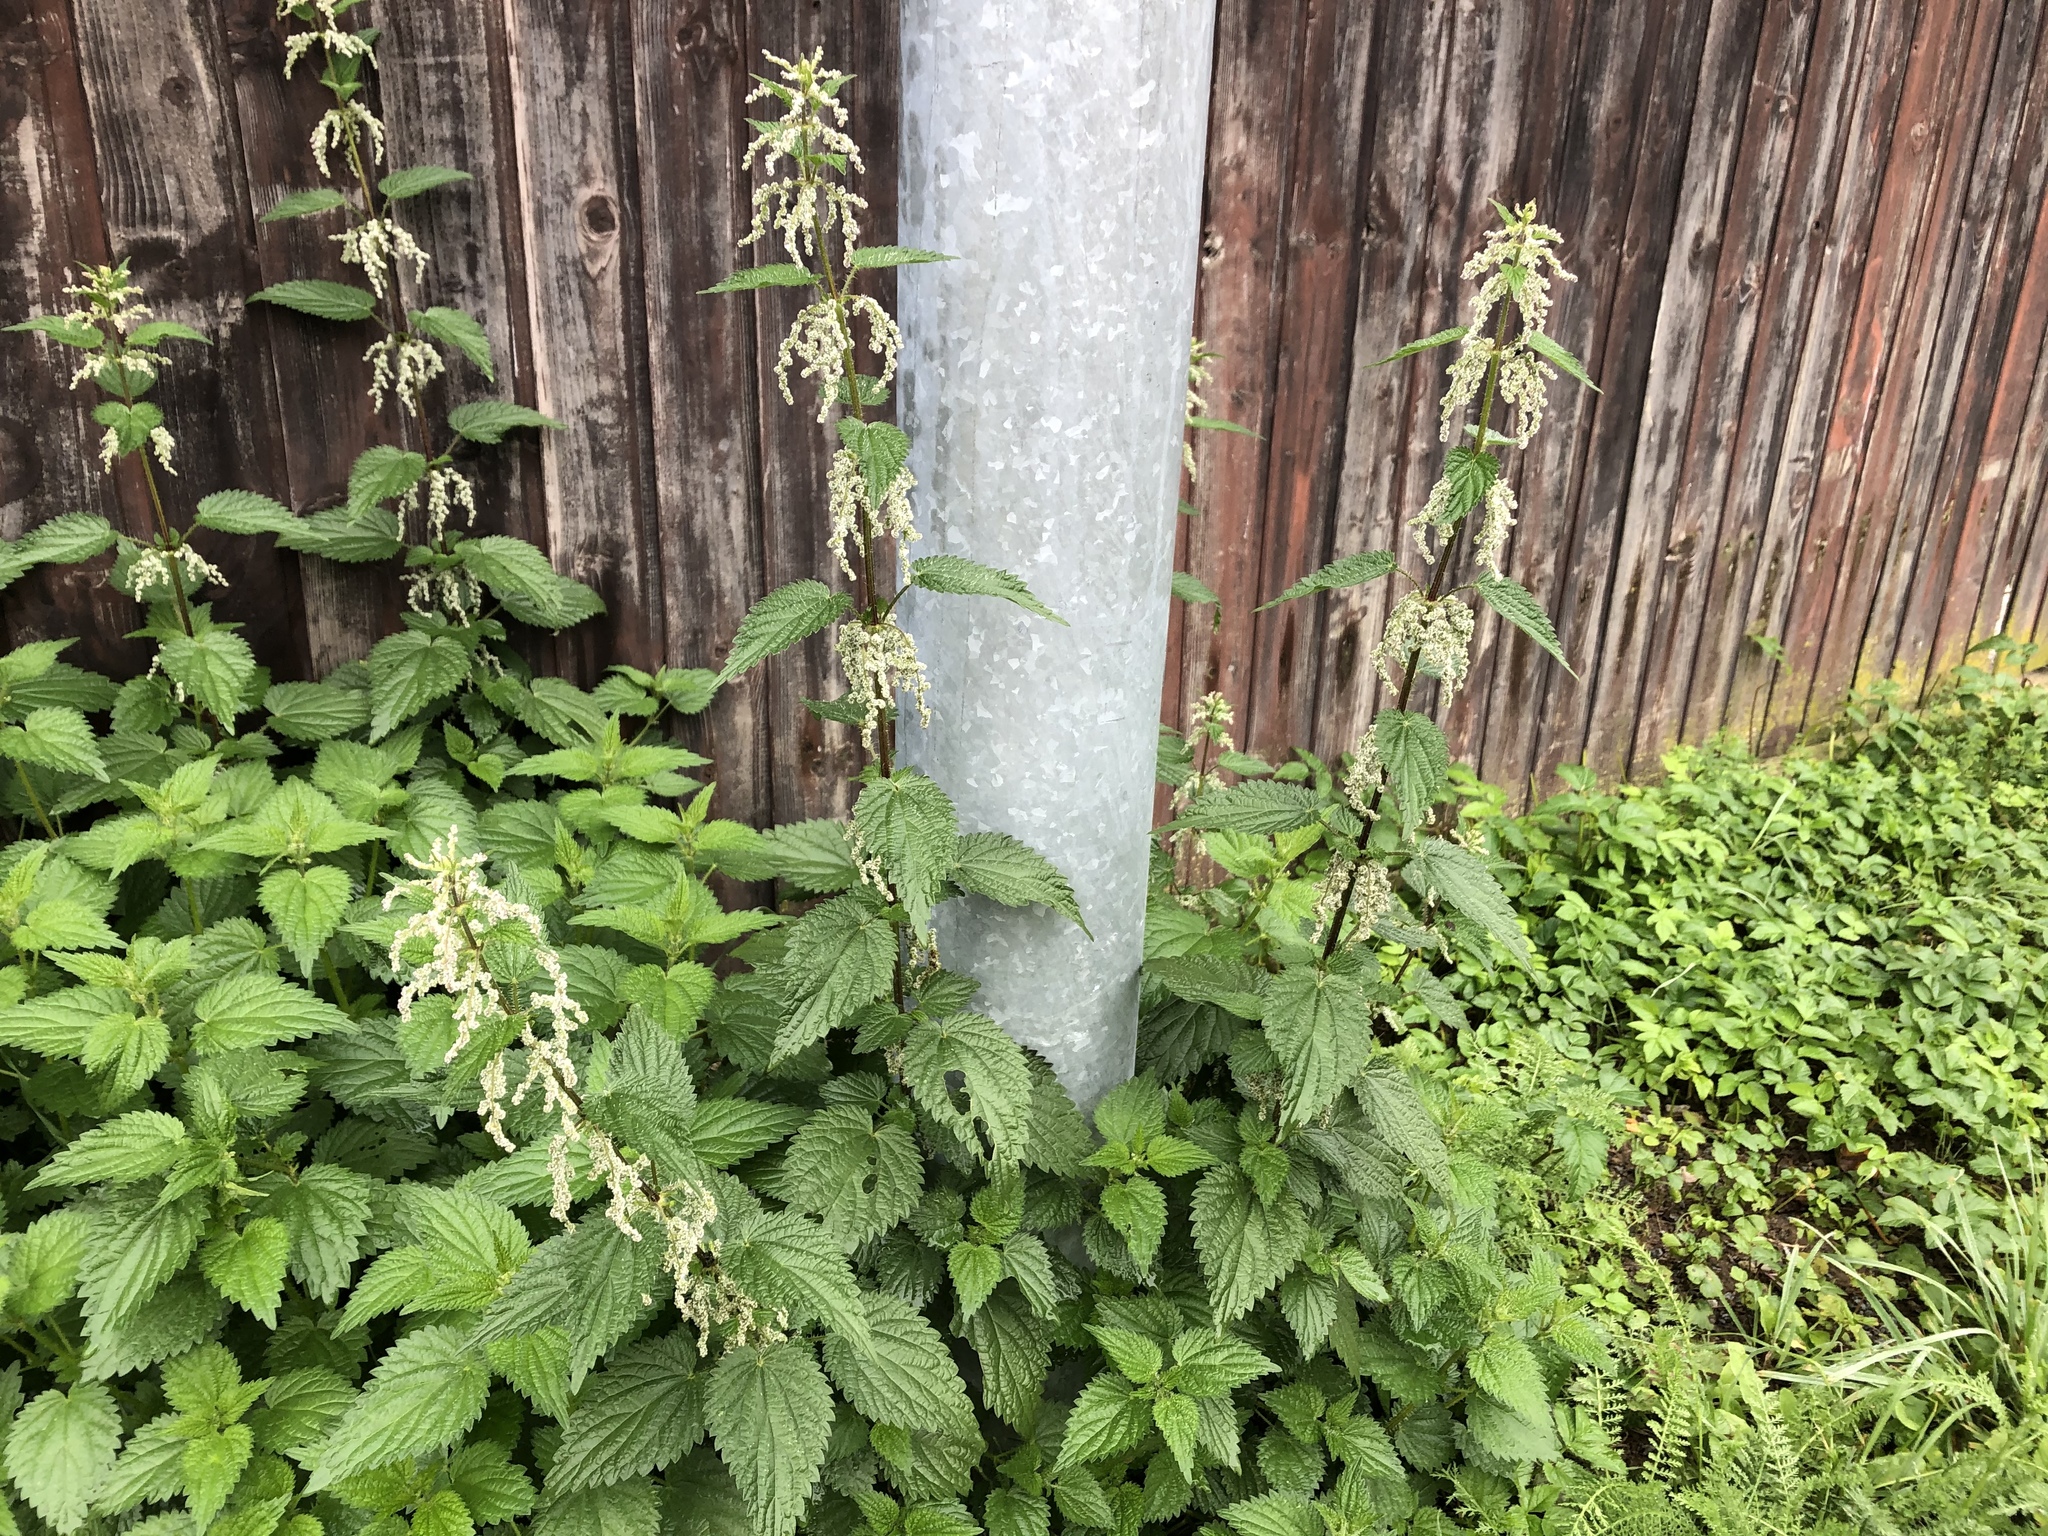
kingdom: Plantae
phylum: Tracheophyta
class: Magnoliopsida
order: Rosales
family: Urticaceae
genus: Urtica
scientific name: Urtica dioica
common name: Common nettle
